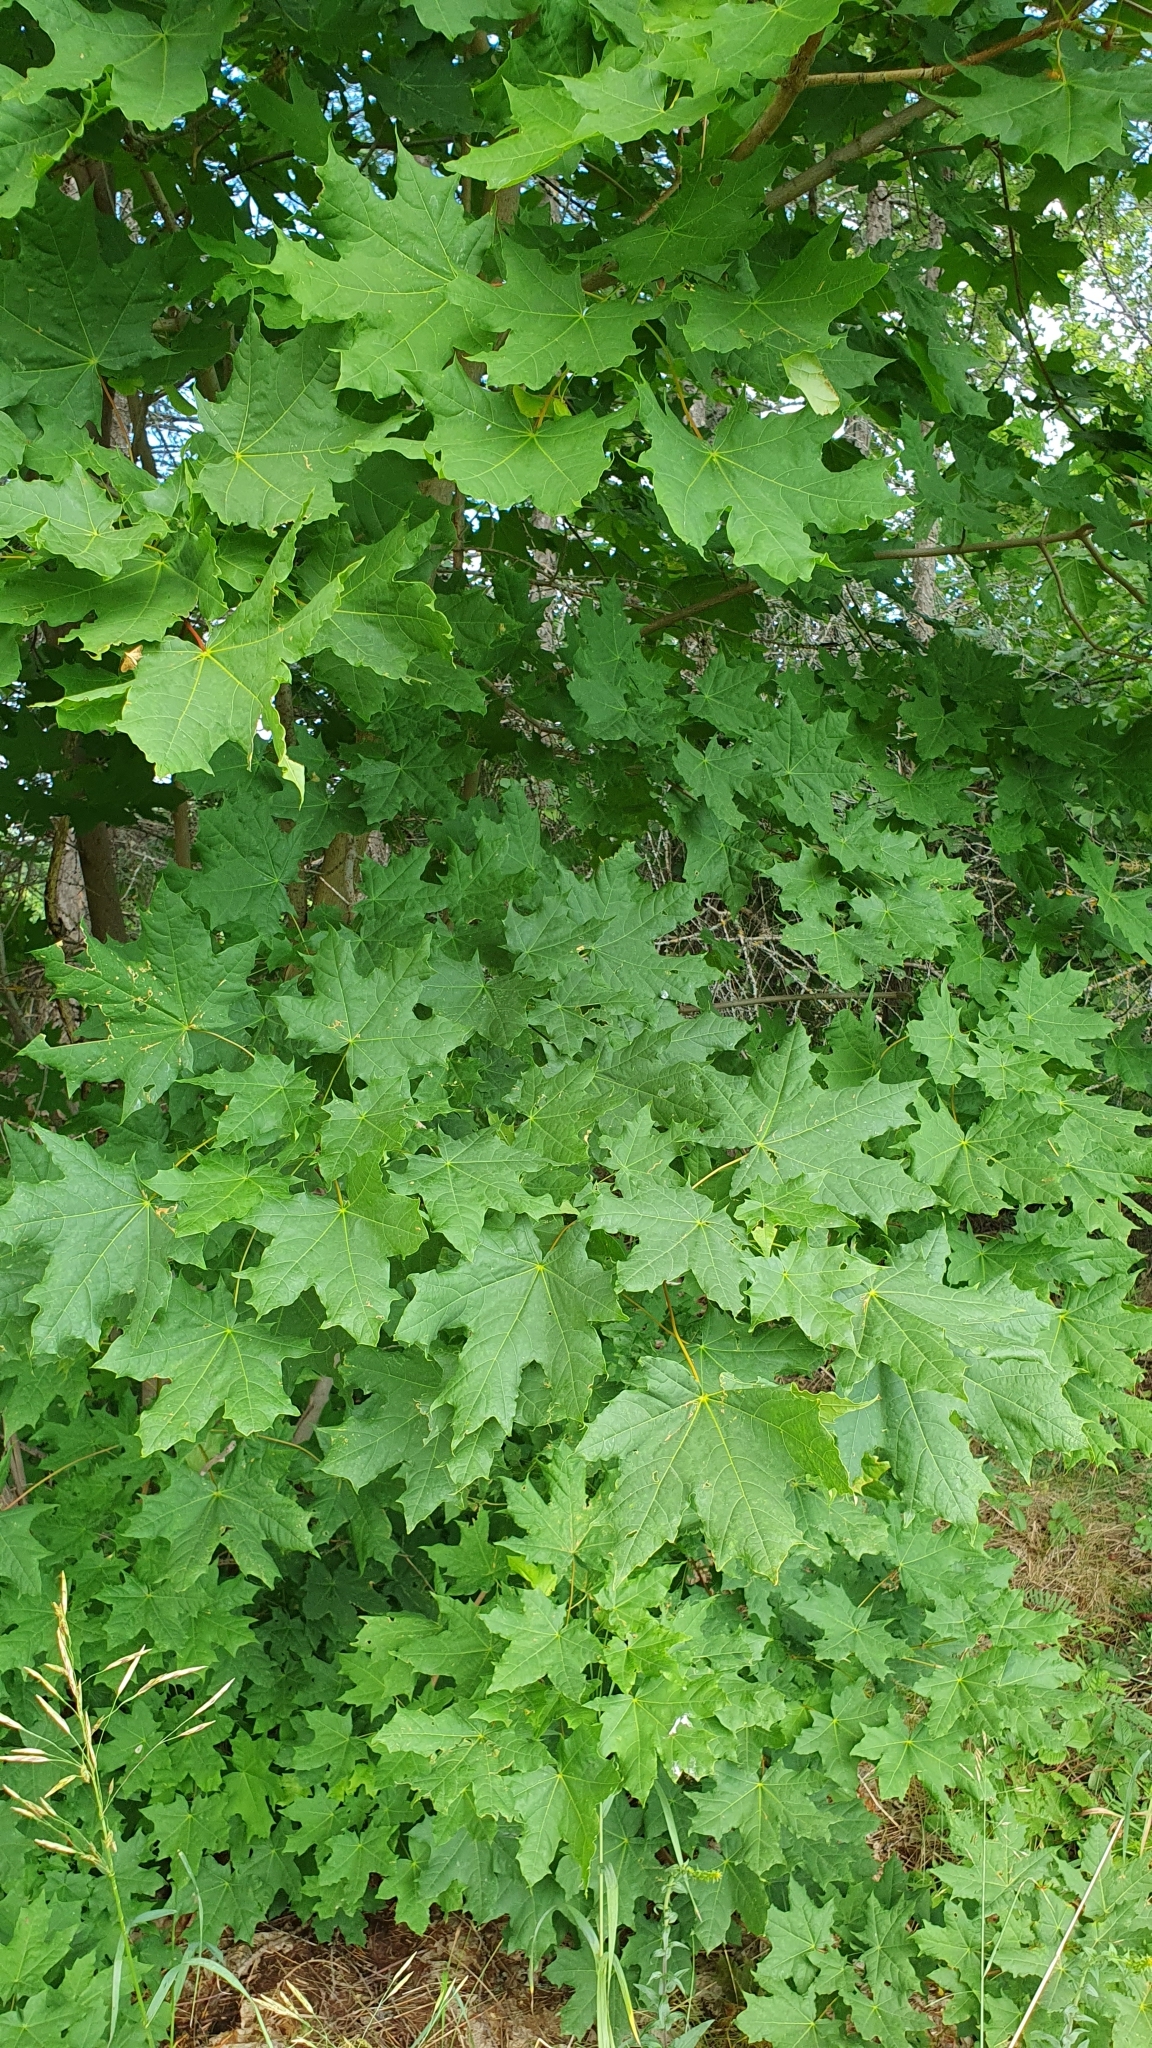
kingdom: Plantae
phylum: Tracheophyta
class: Magnoliopsida
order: Sapindales
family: Sapindaceae
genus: Acer
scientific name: Acer platanoides
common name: Norway maple
